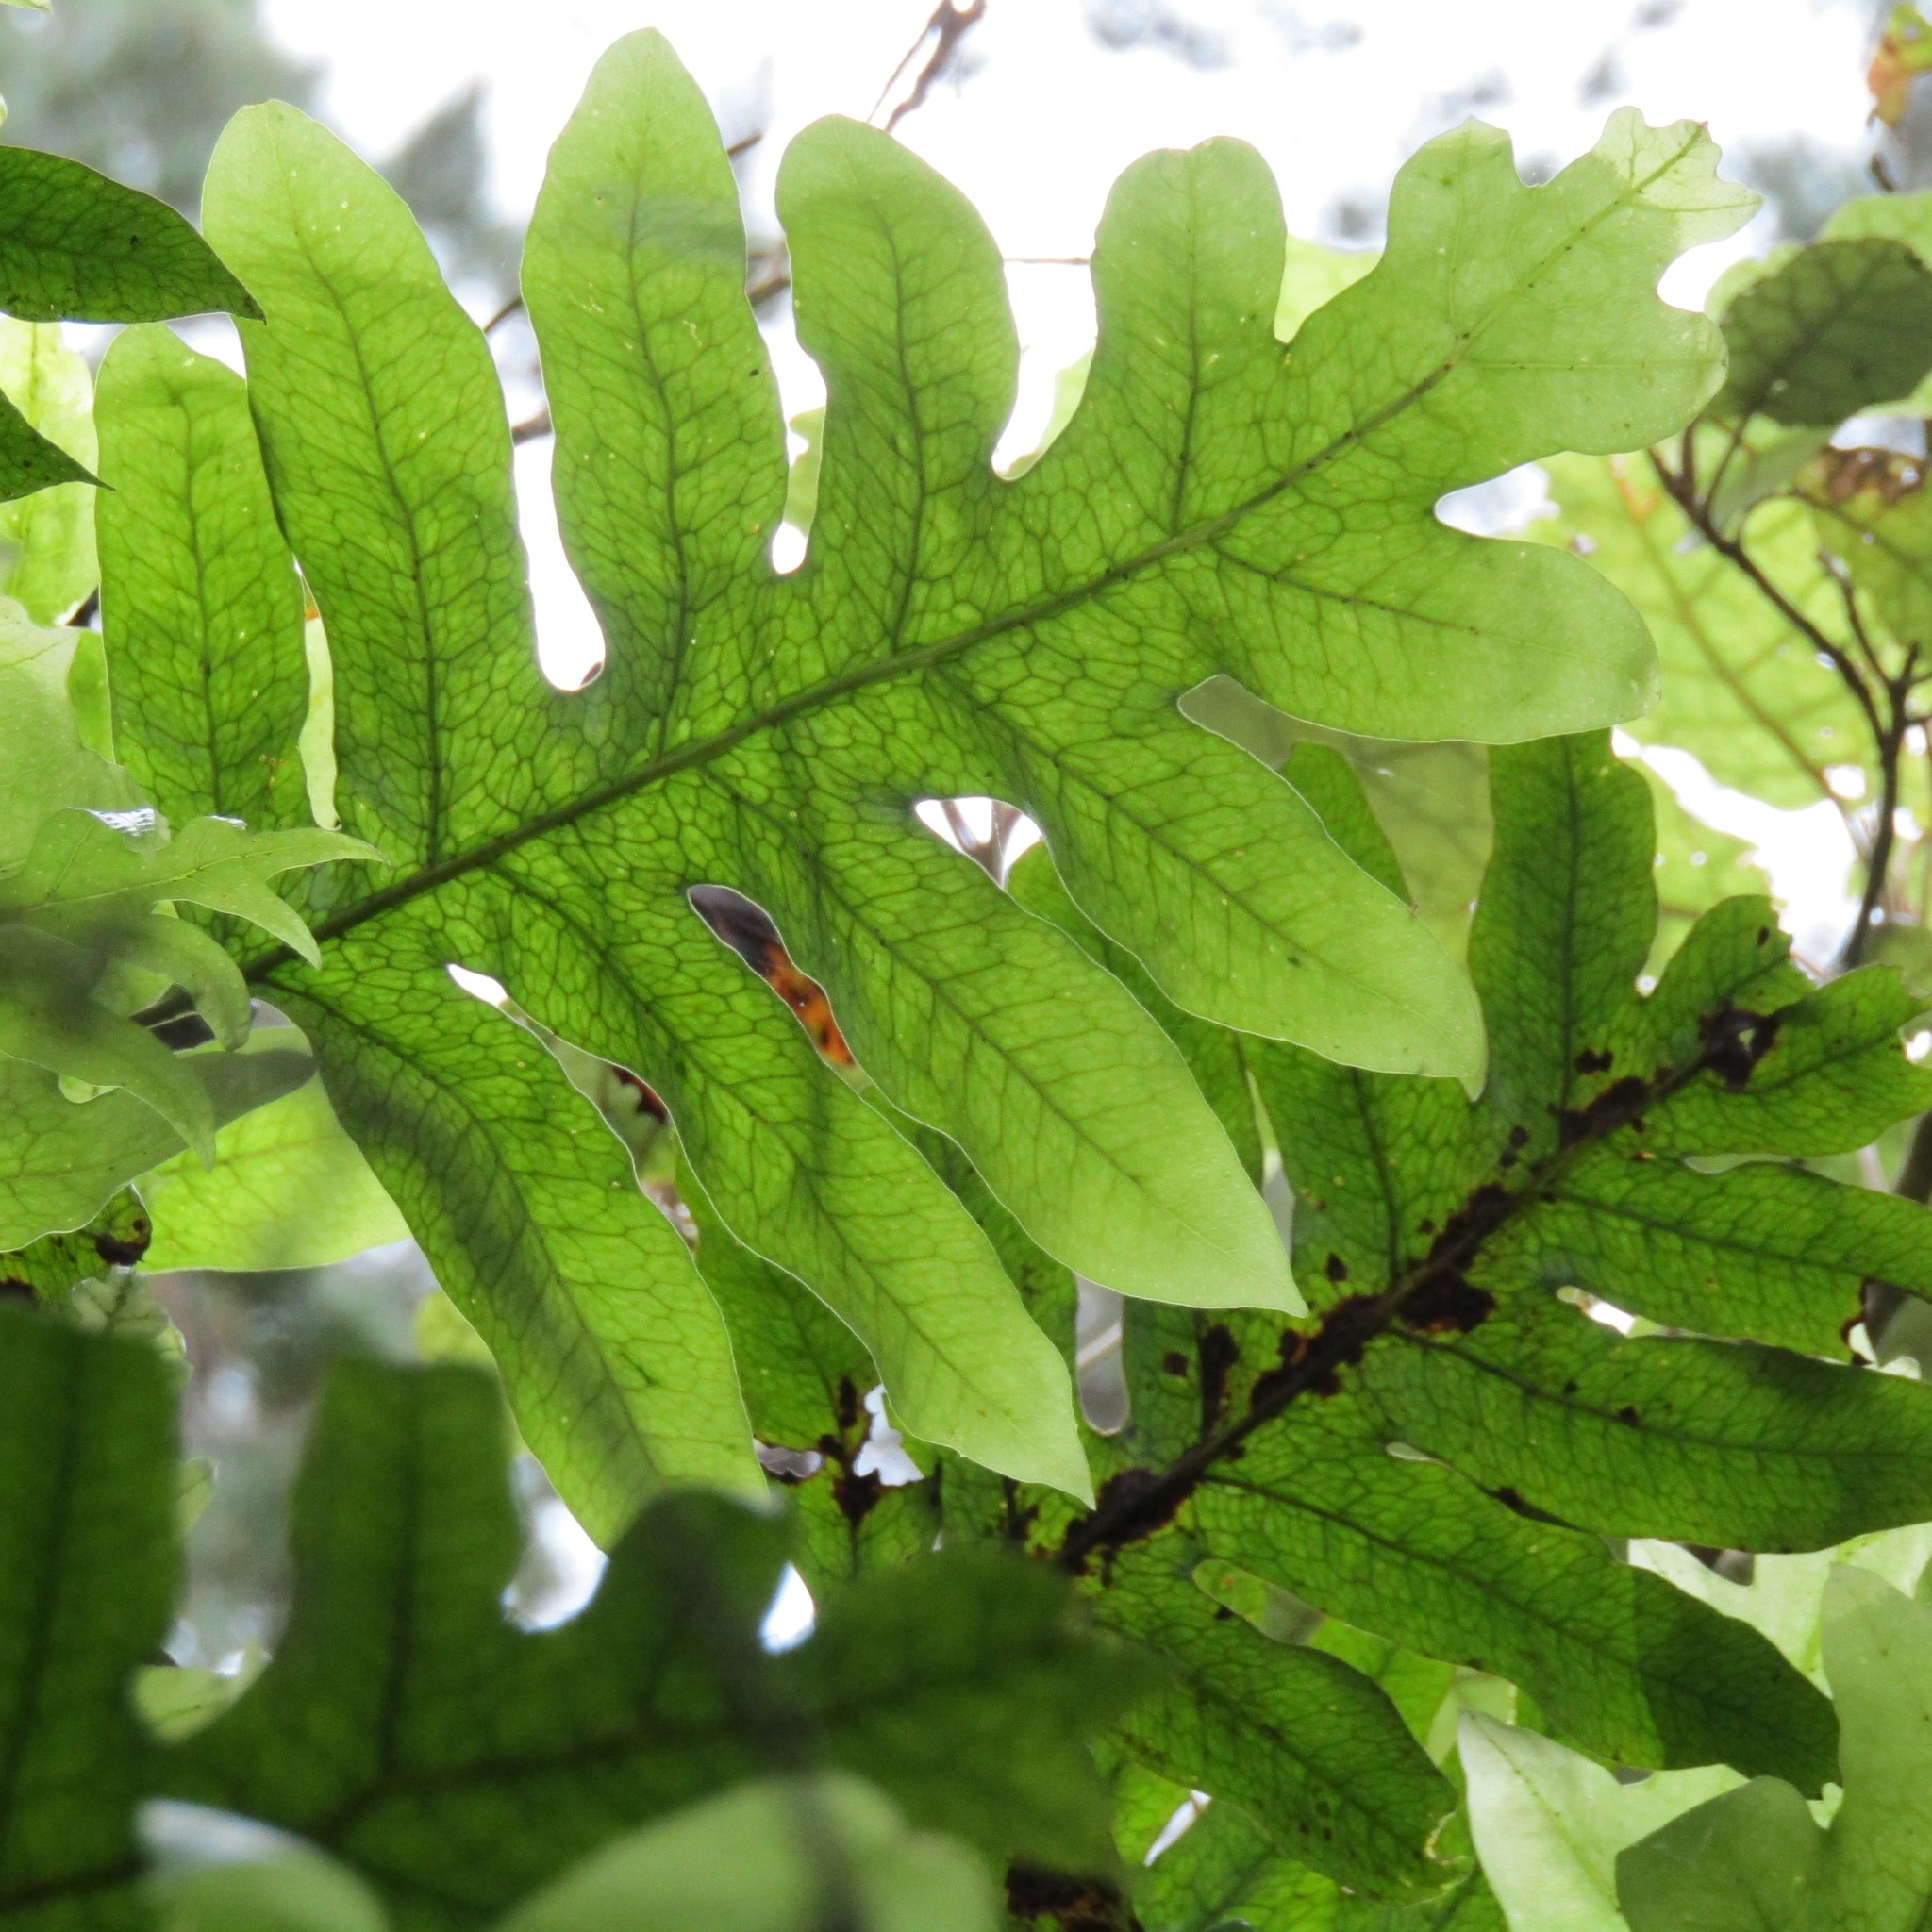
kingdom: Plantae
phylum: Tracheophyta
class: Polypodiopsida
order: Polypodiales
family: Polypodiaceae
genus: Lecanopteris
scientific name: Lecanopteris pustulata
